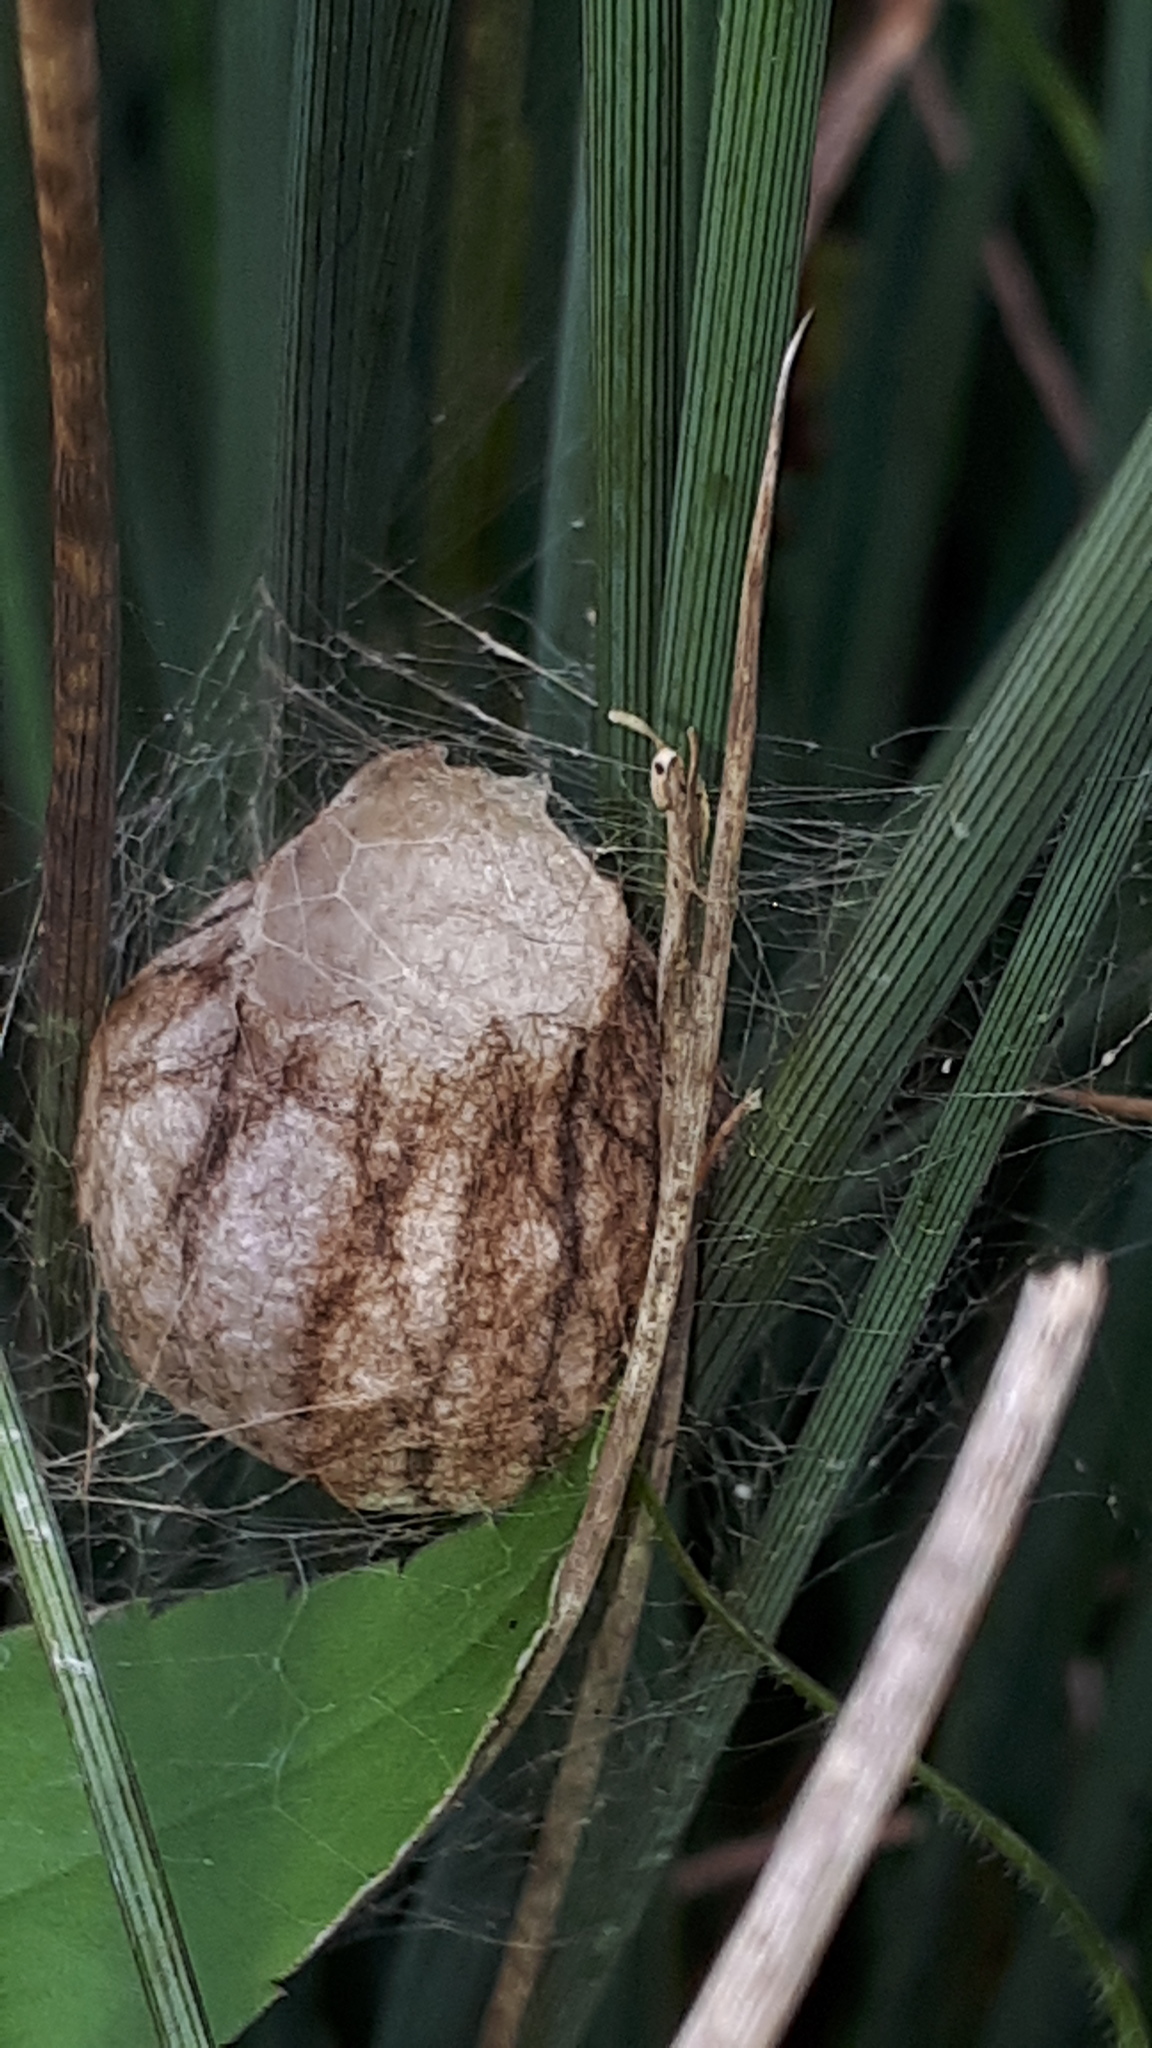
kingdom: Animalia
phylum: Arthropoda
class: Arachnida
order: Araneae
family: Araneidae
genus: Argiope
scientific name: Argiope bruennichi
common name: Wasp spider
